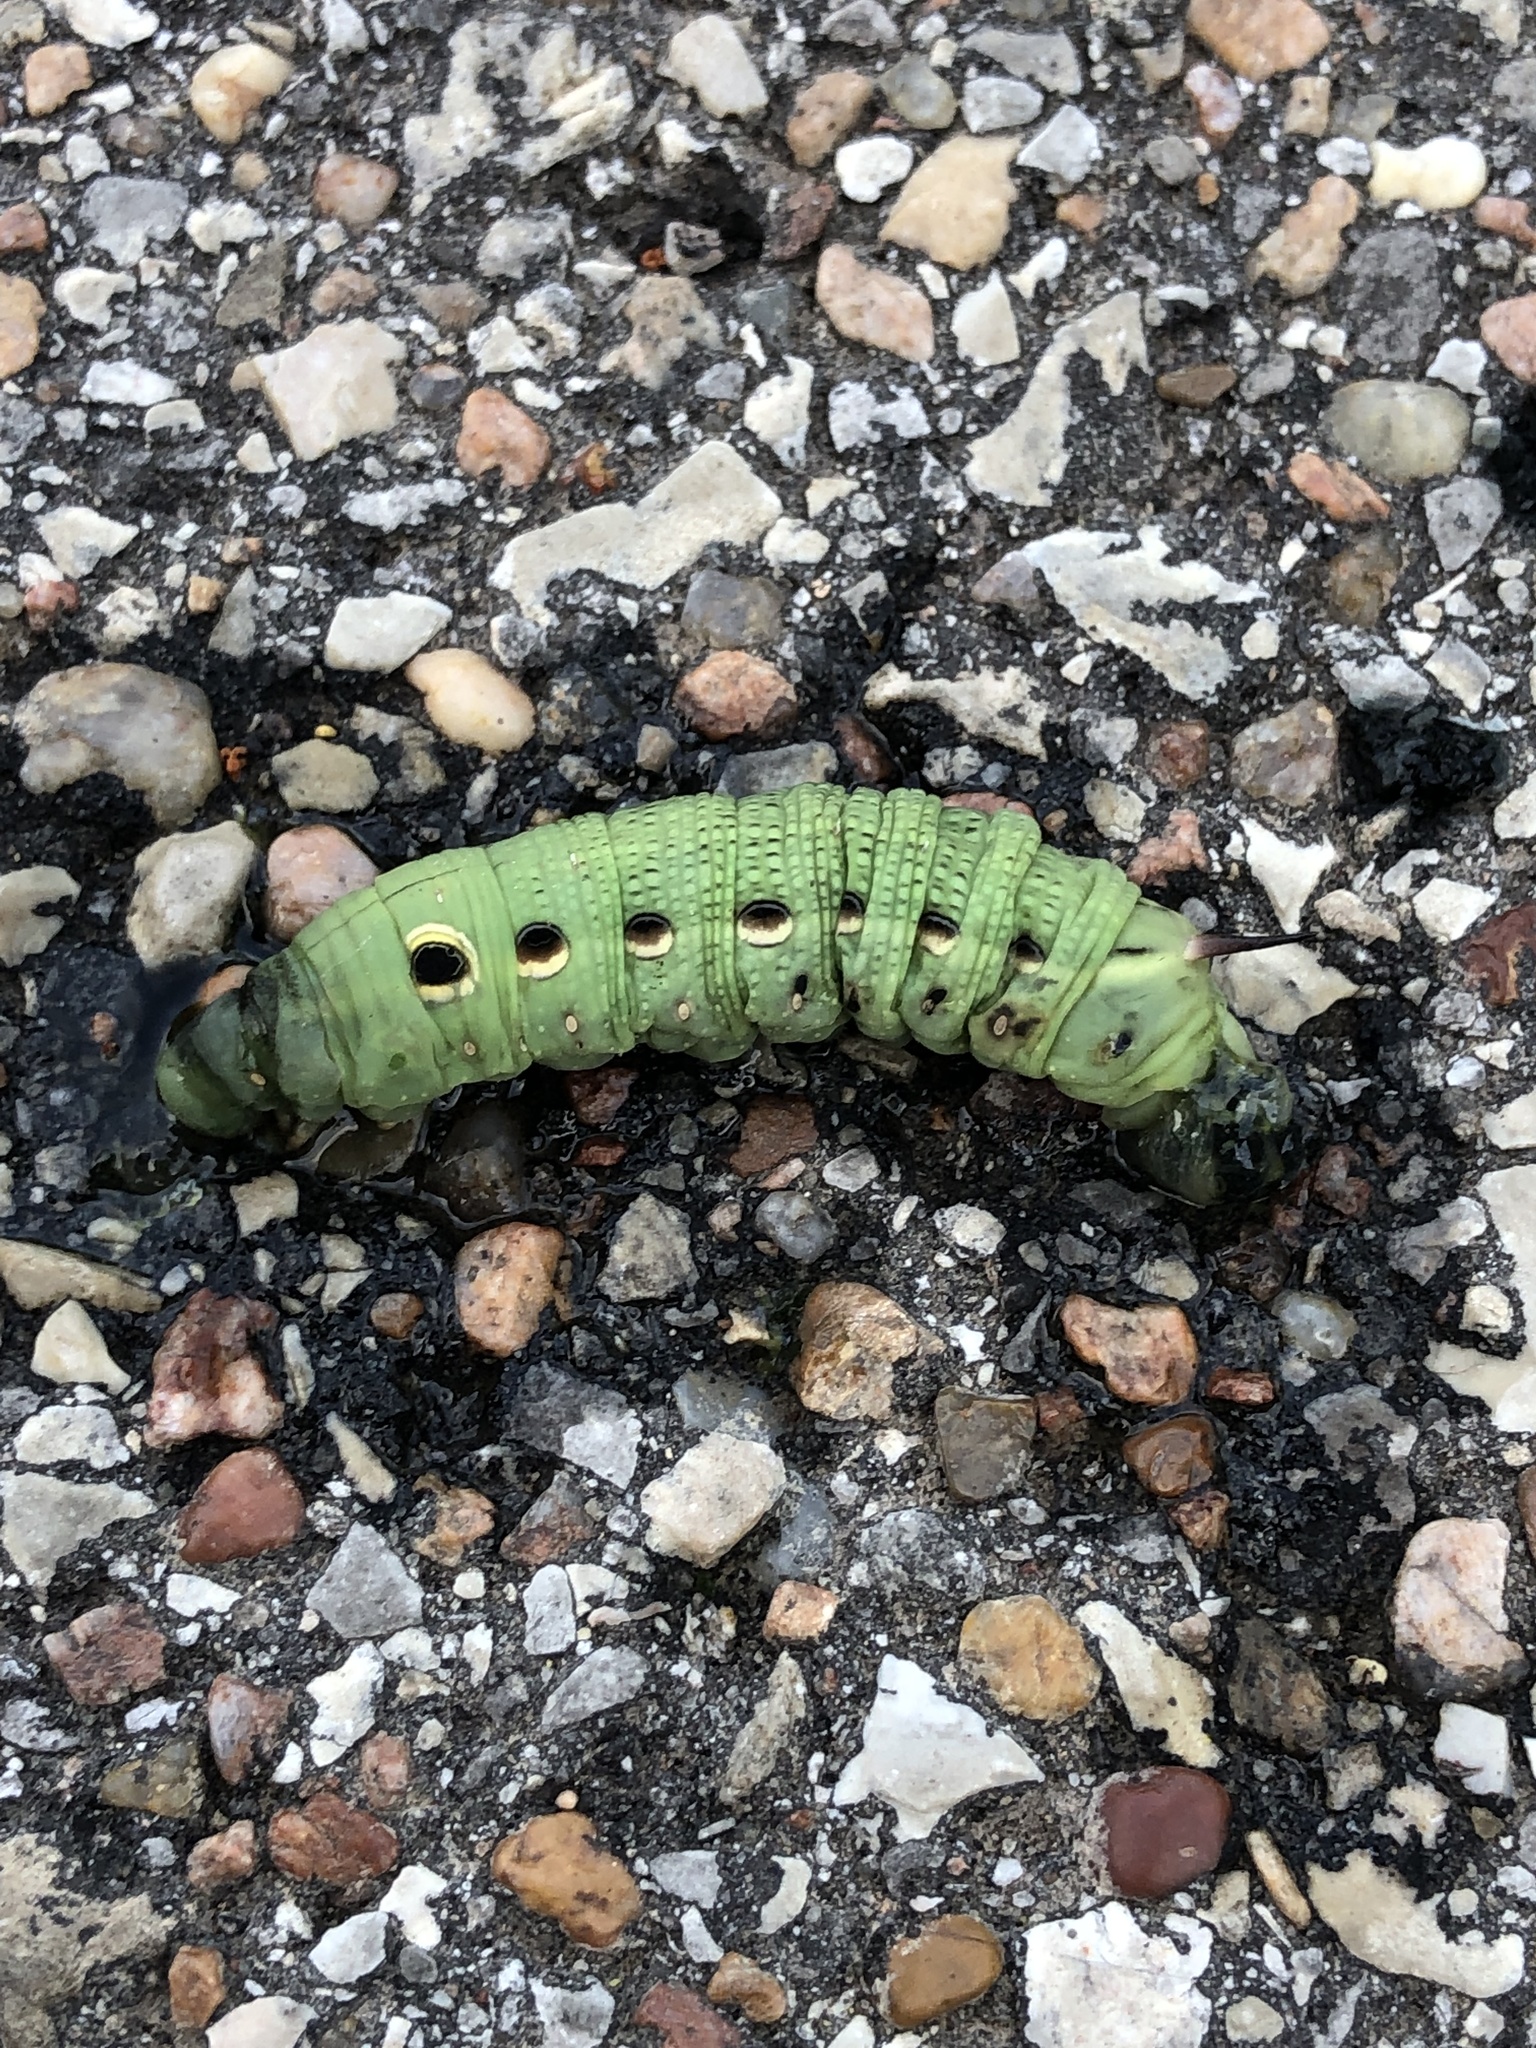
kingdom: Animalia
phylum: Arthropoda
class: Insecta
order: Lepidoptera
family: Sphingidae
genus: Xylophanes
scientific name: Xylophanes tersa
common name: Tersa sphinx
